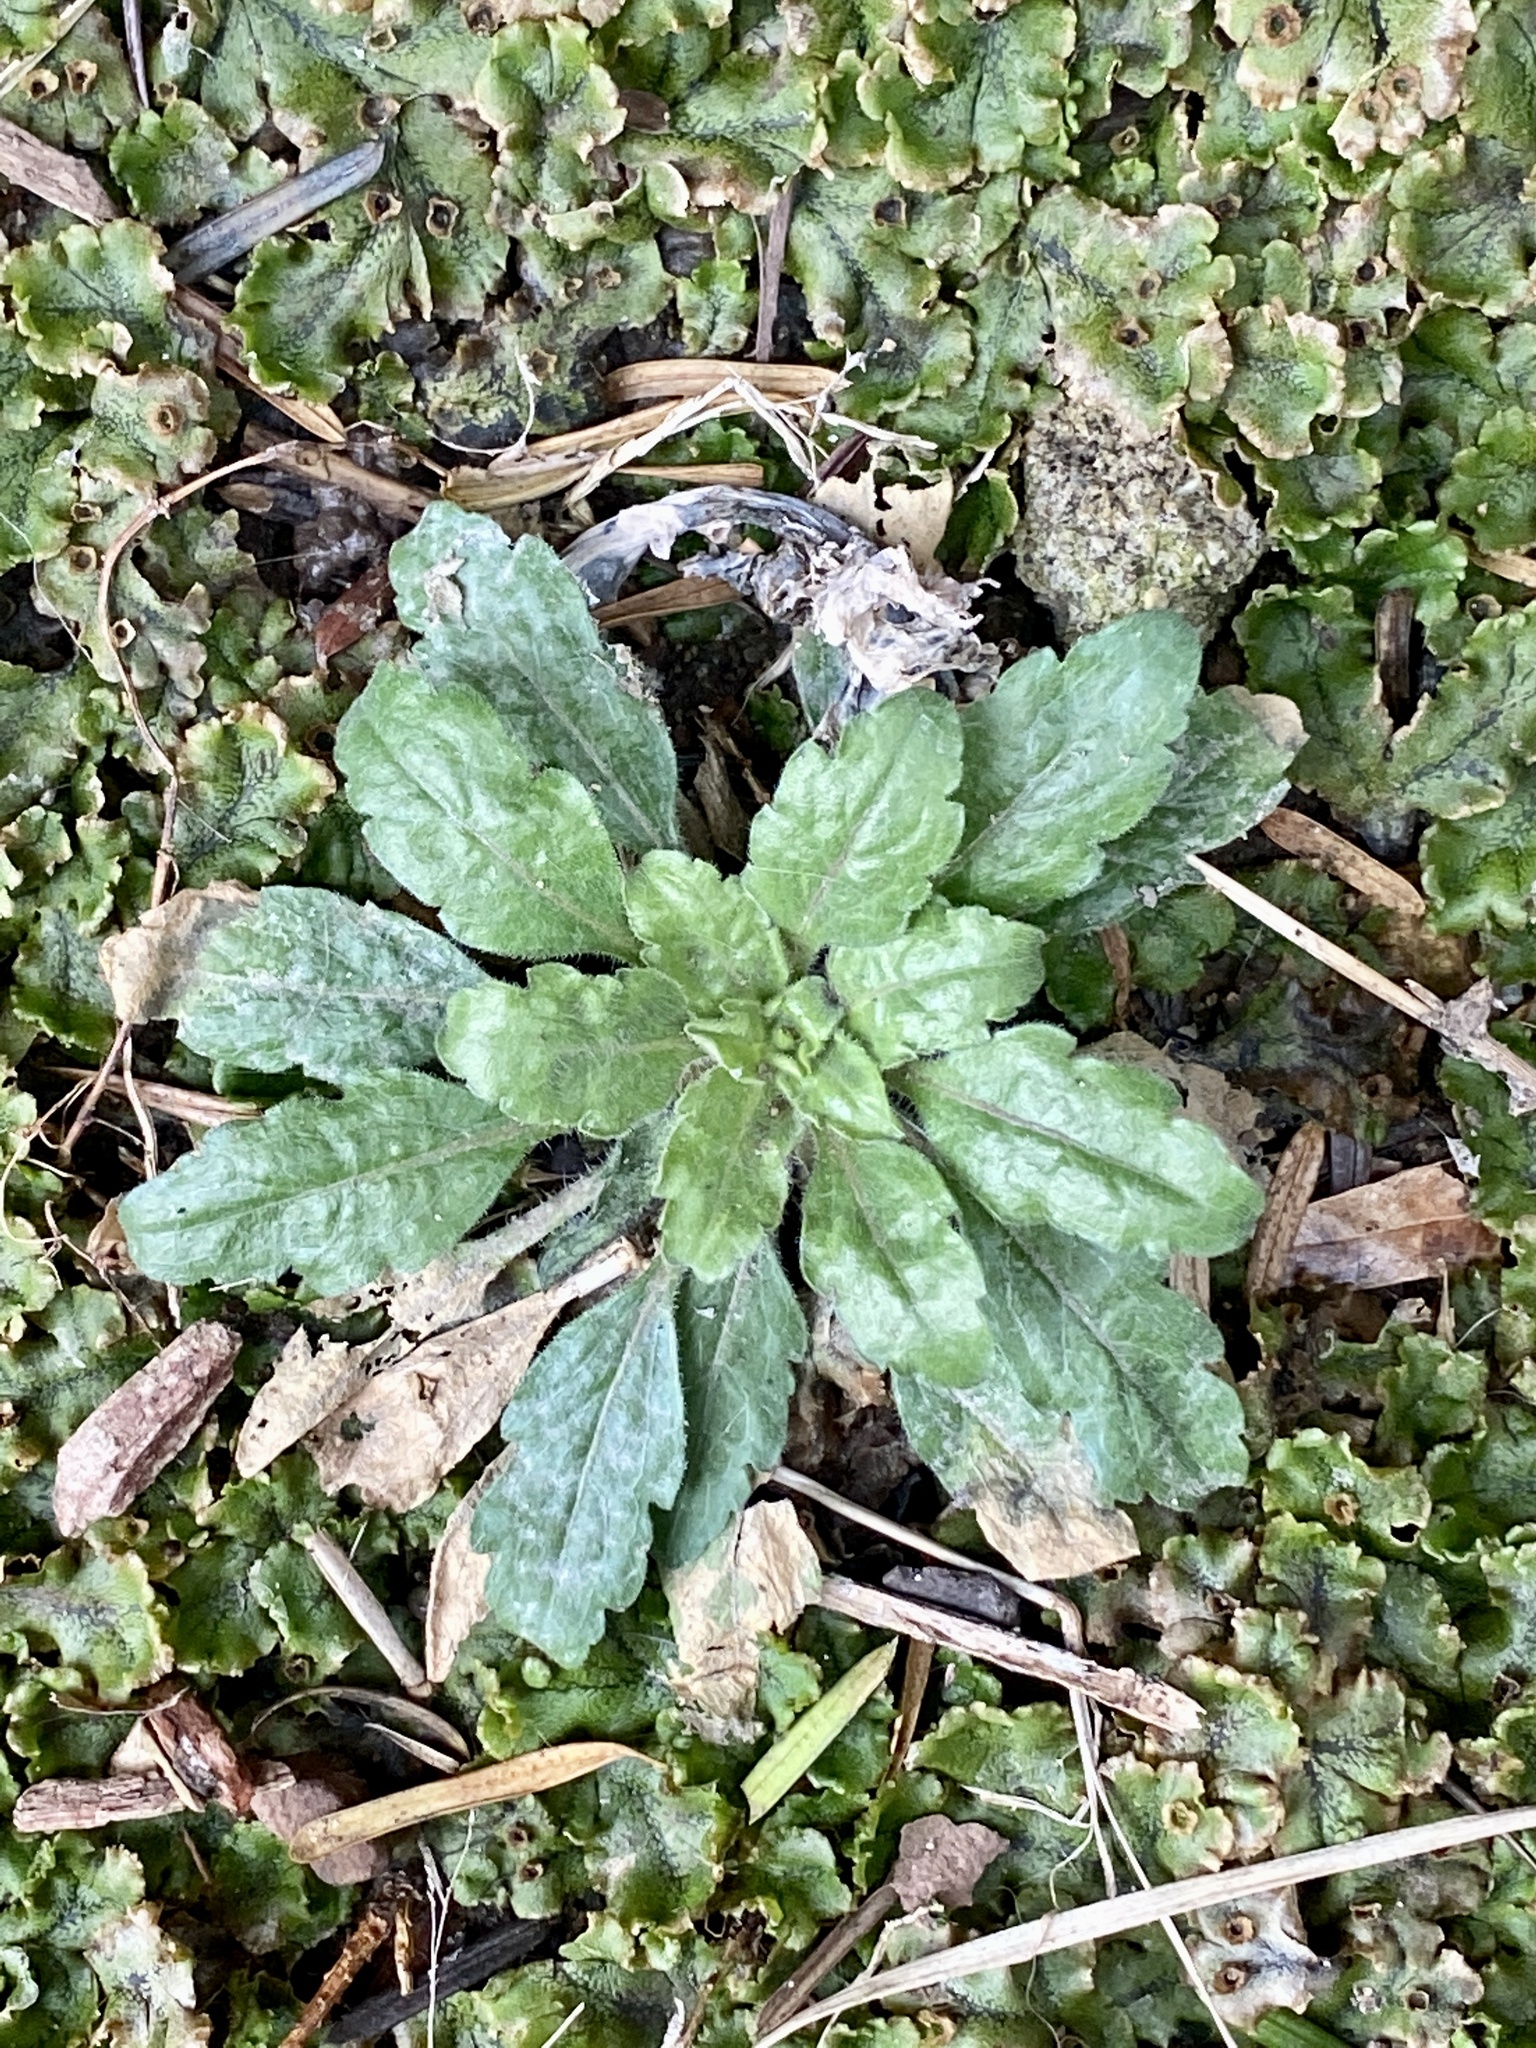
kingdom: Plantae
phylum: Tracheophyta
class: Magnoliopsida
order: Asterales
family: Asteraceae
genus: Erigeron
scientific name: Erigeron canadensis
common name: Canadian fleabane
